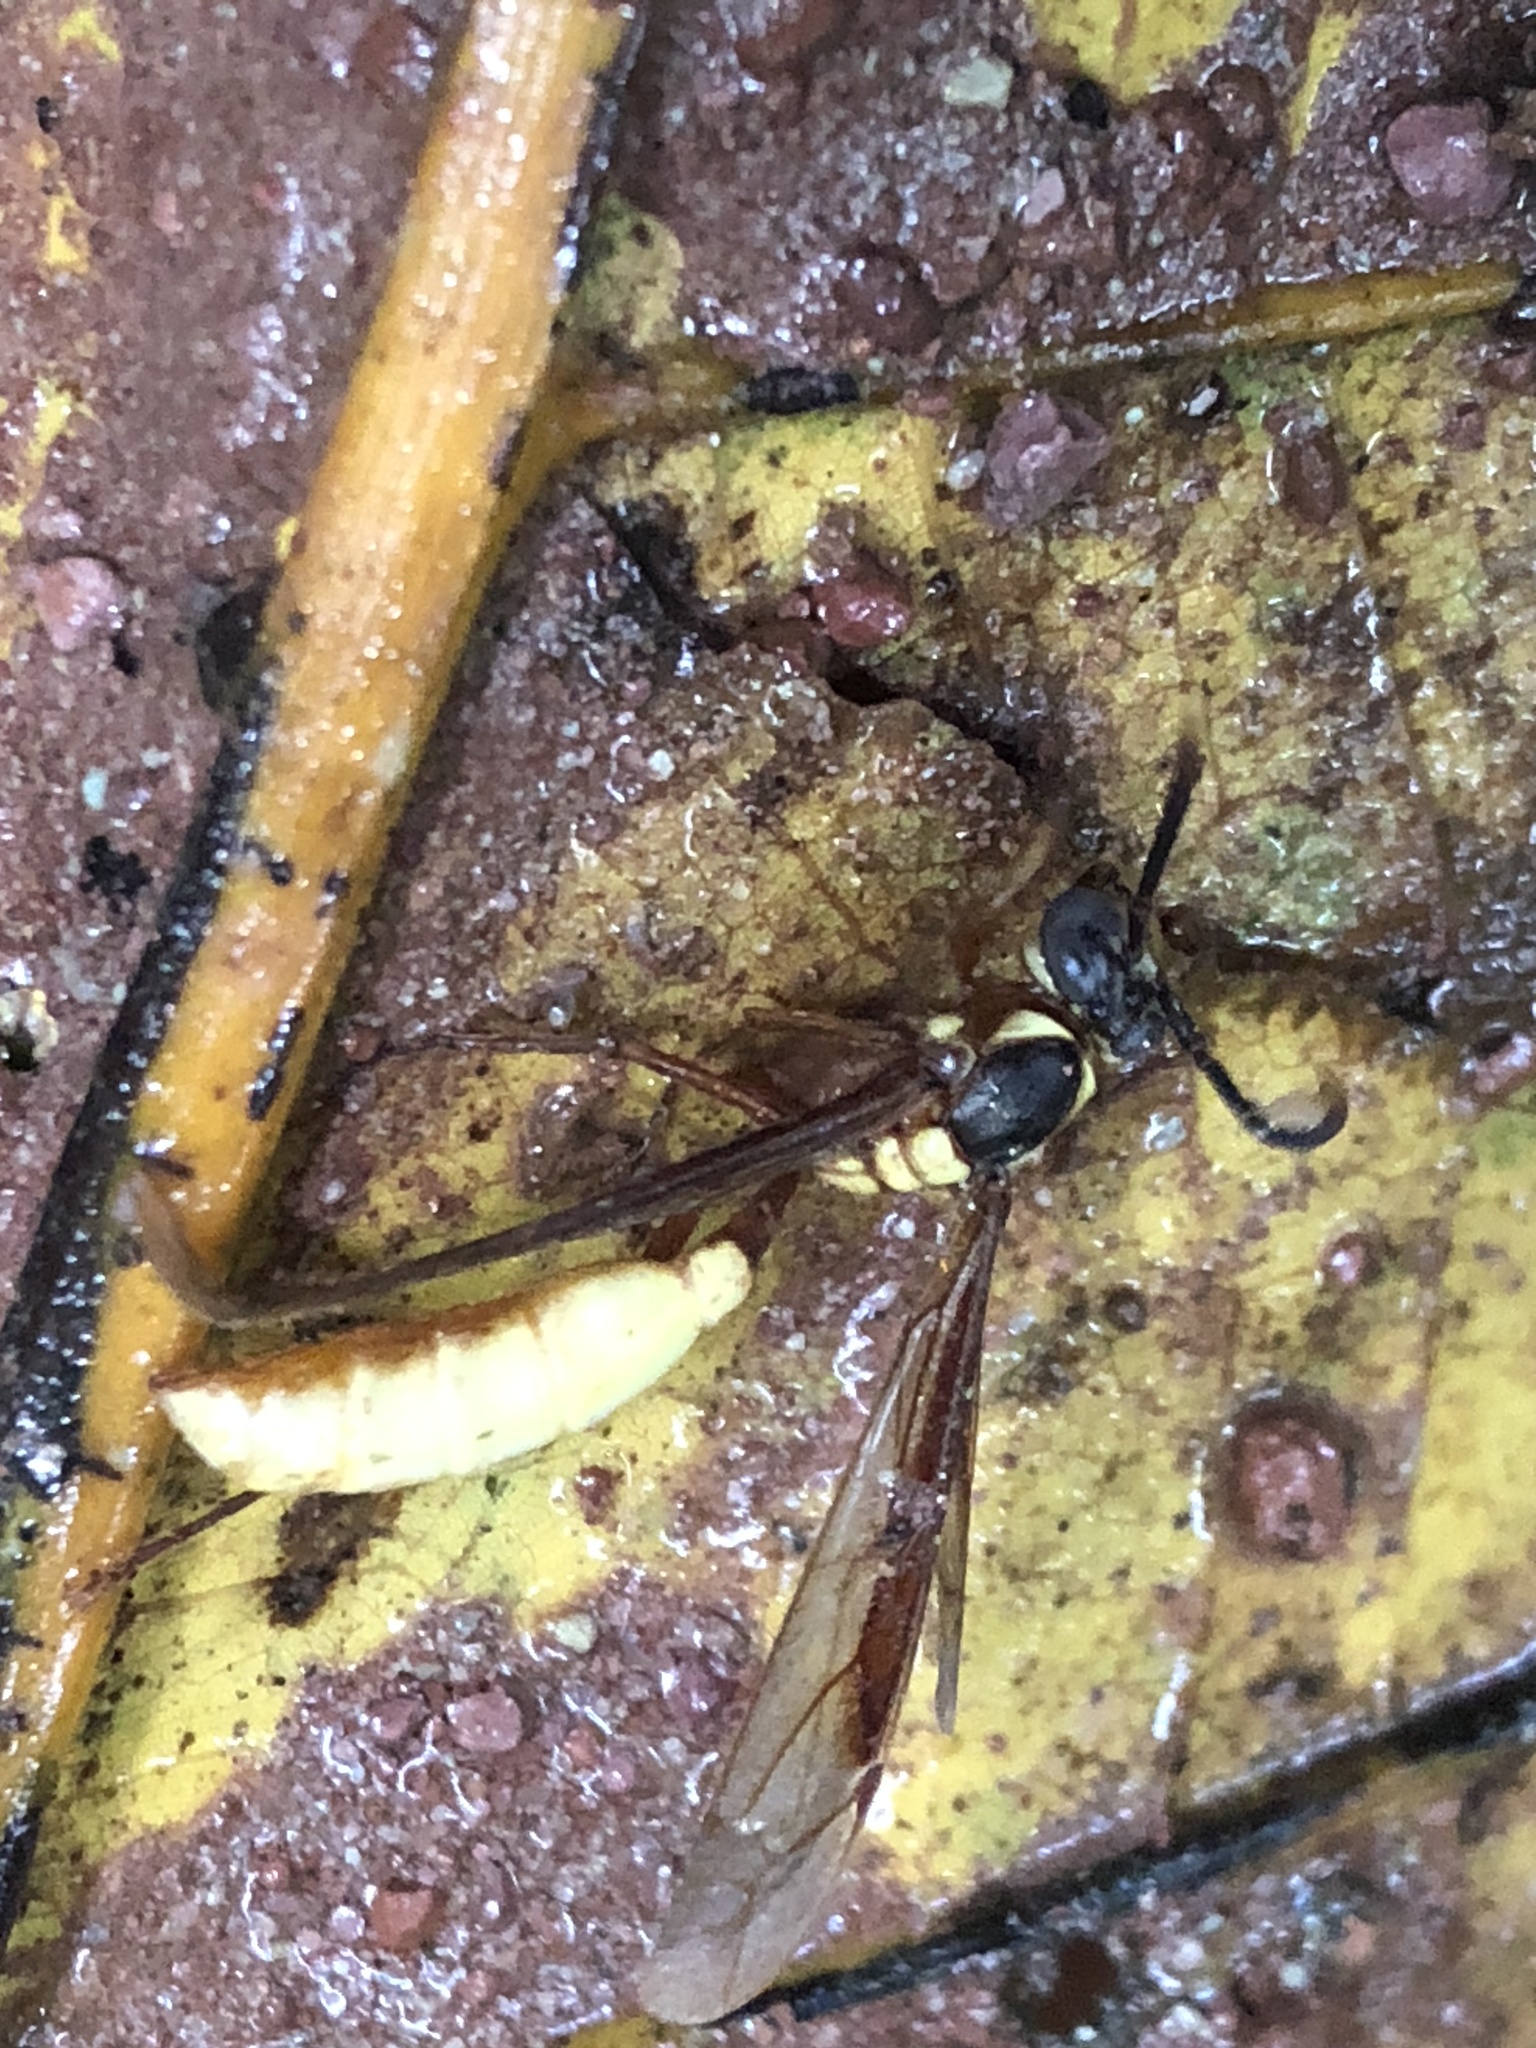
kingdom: Animalia
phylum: Arthropoda
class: Insecta
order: Hymenoptera
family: Vespidae
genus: Apoica
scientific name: Apoica pallens
